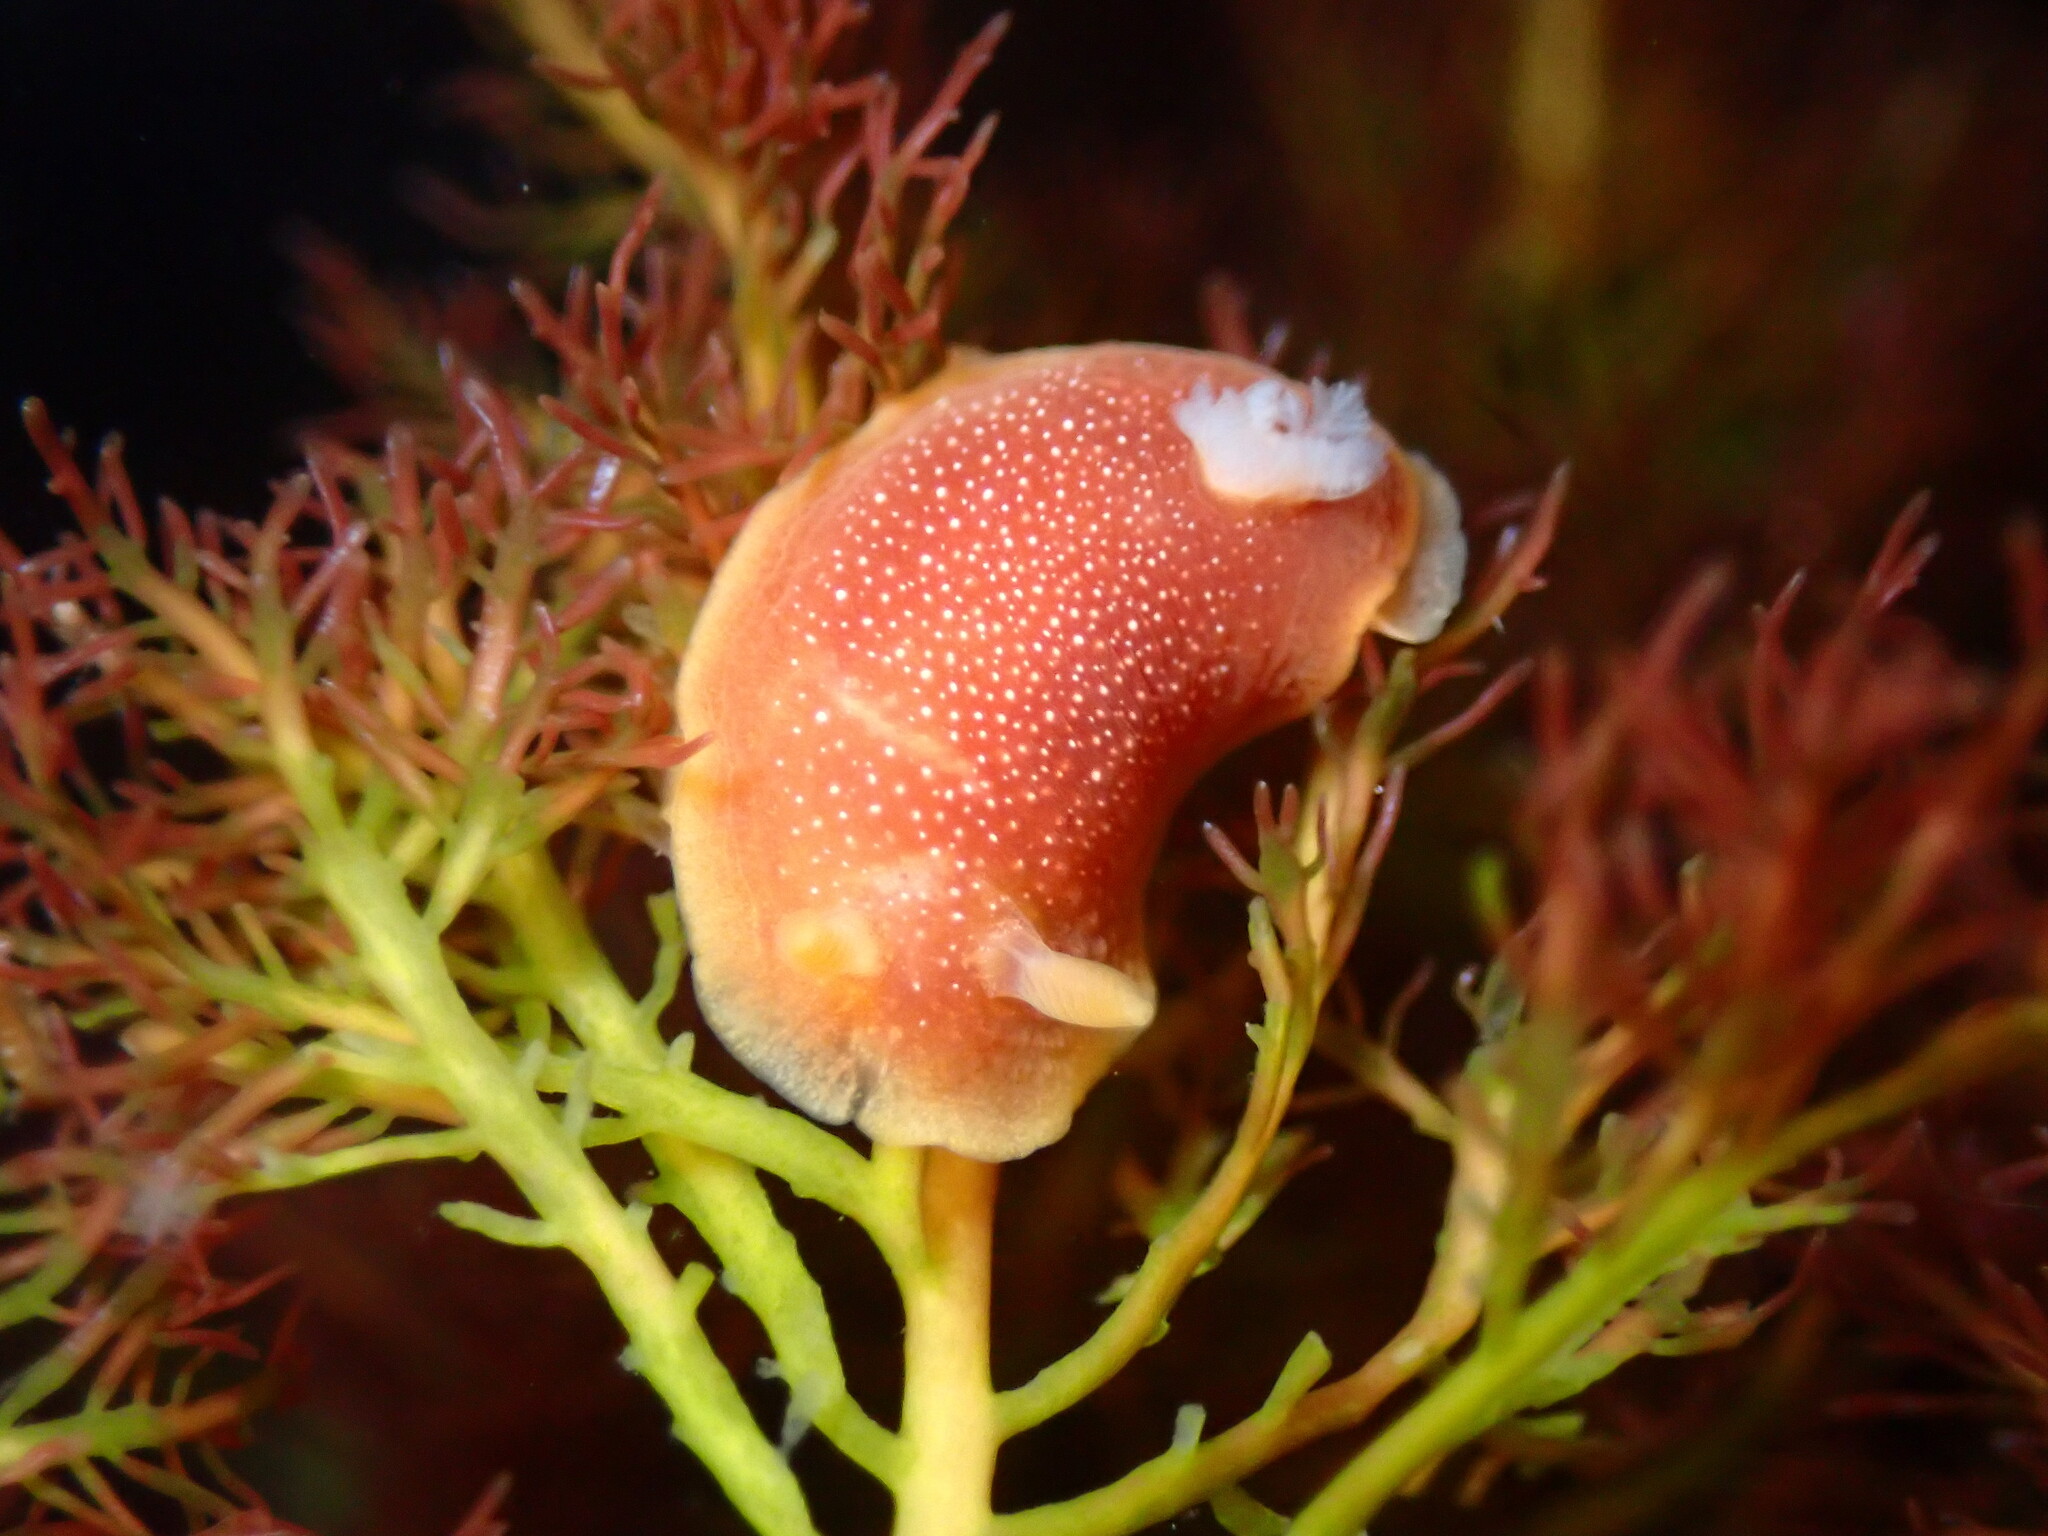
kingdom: Animalia
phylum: Mollusca
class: Gastropoda
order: Nudibranchia
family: Dendrodorididae
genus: Doriopsilla
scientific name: Doriopsilla albopunctata
